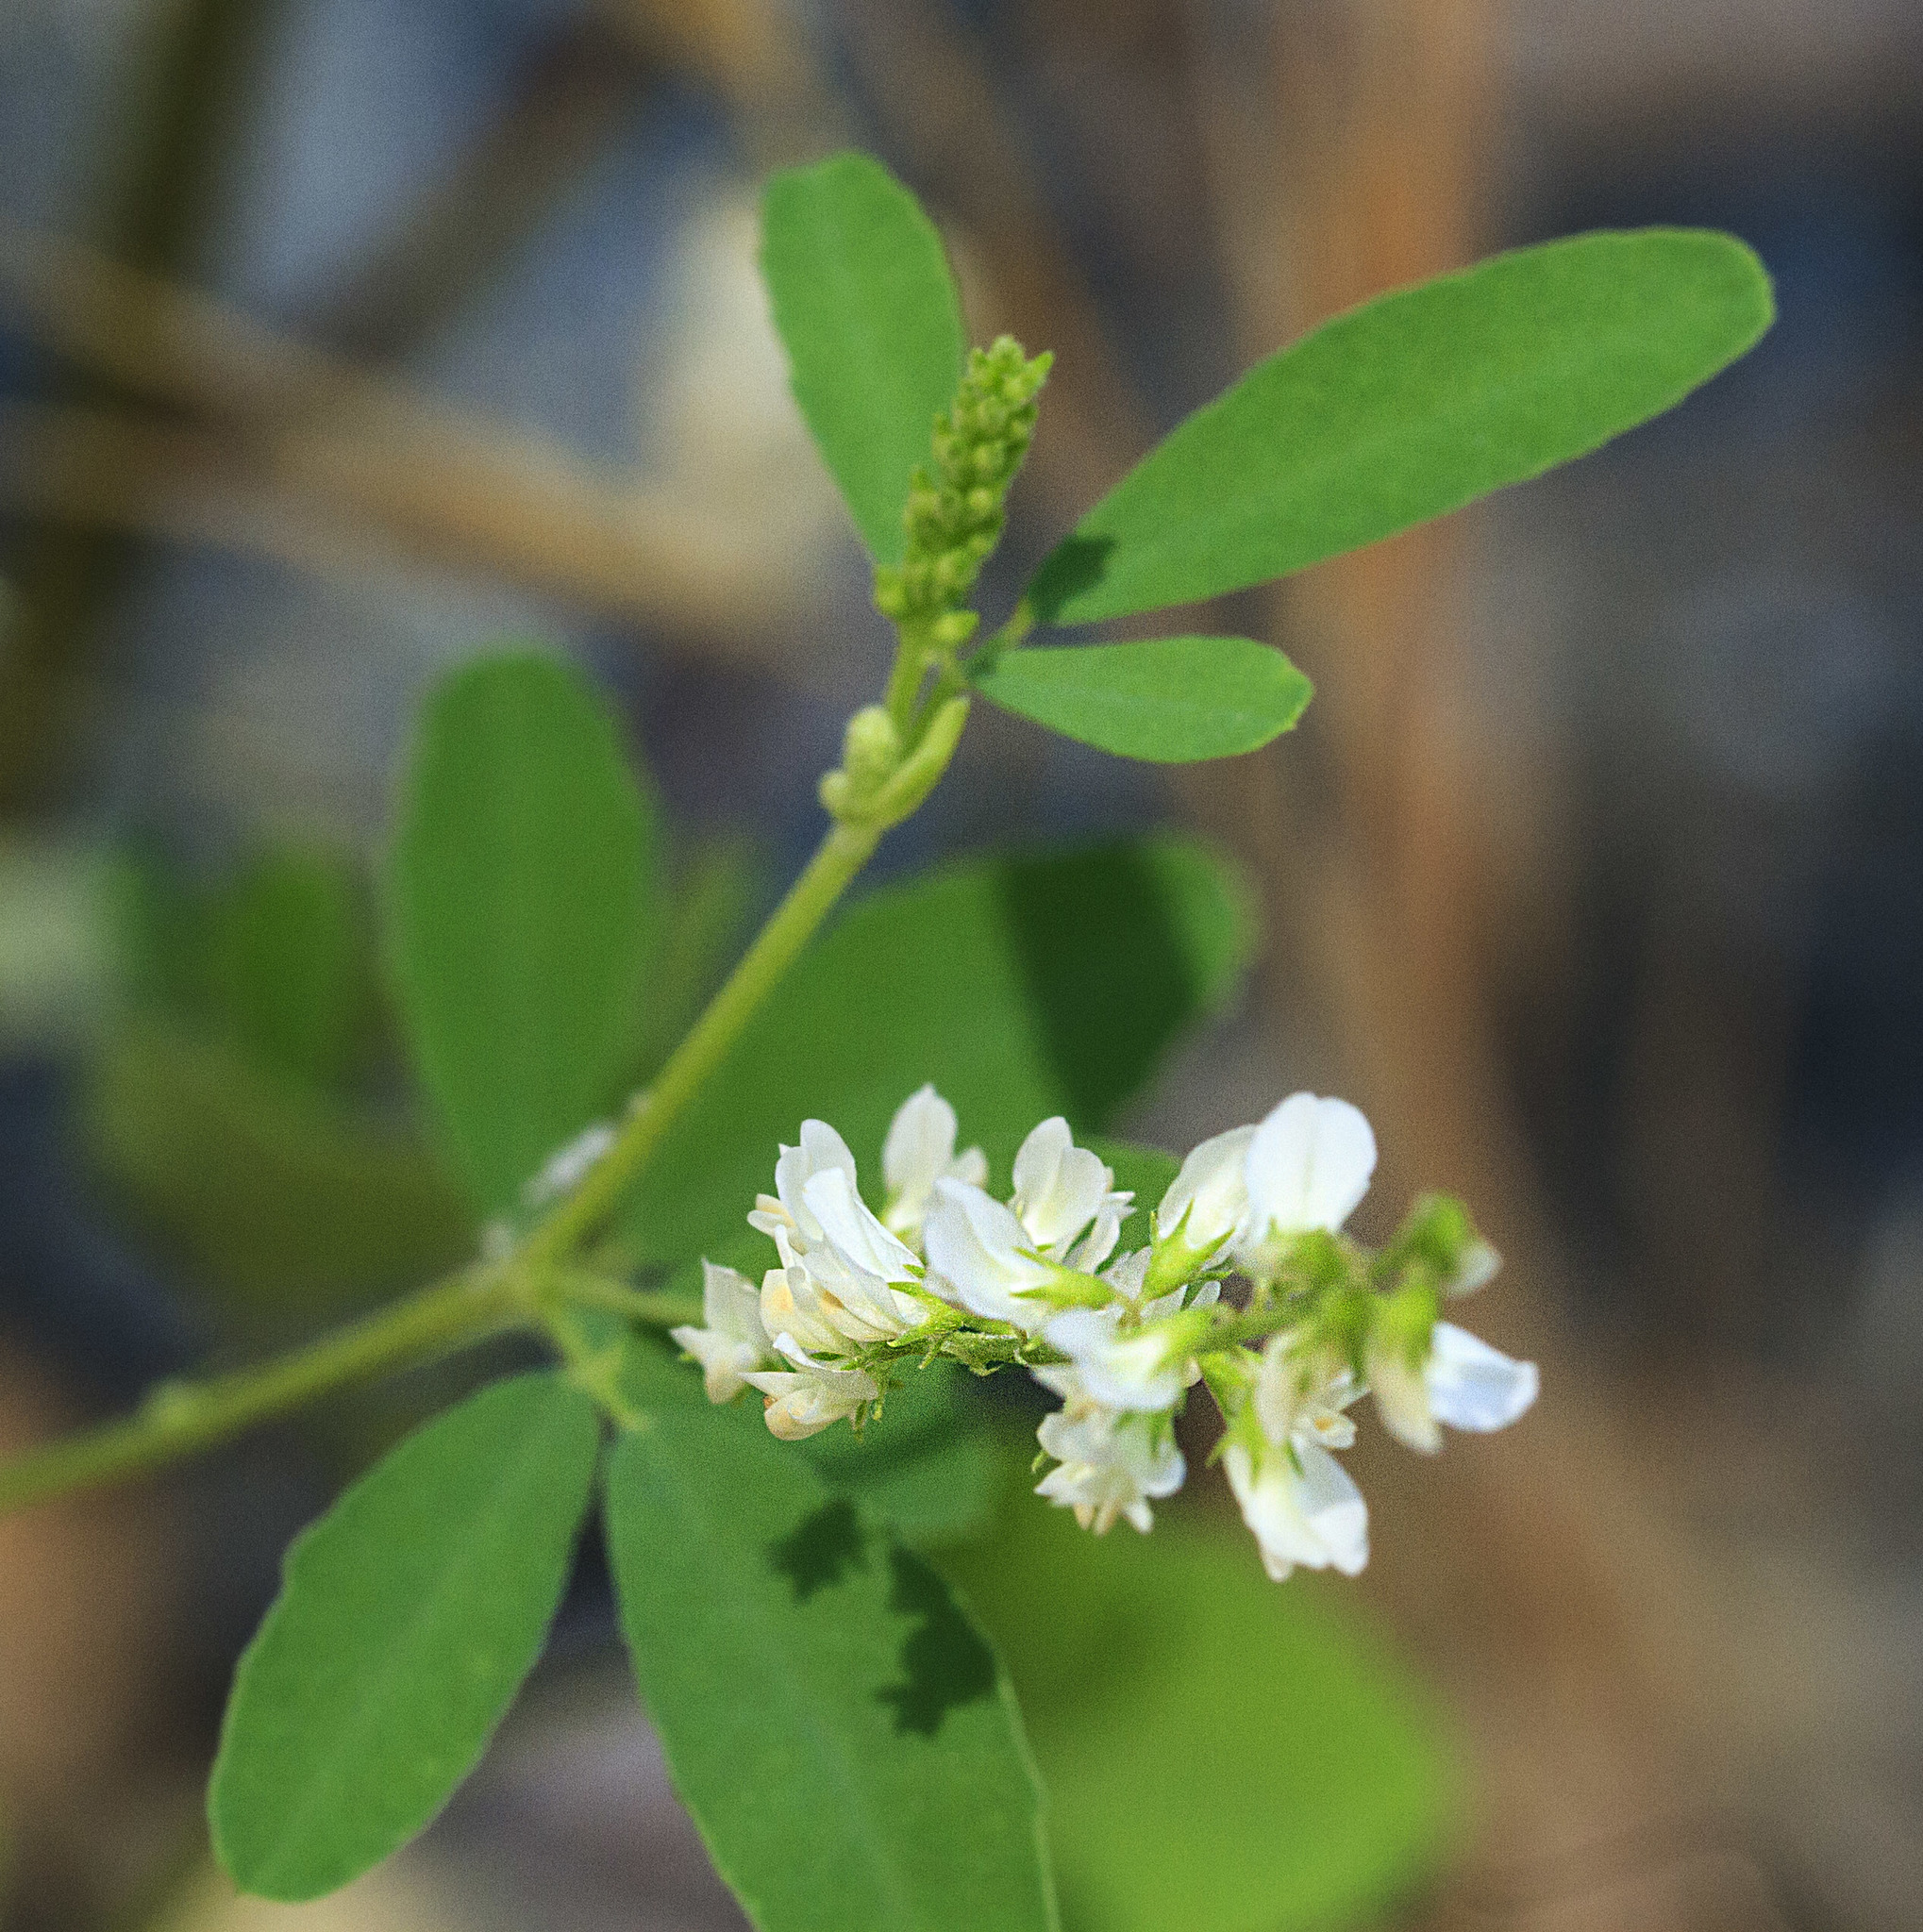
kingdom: Plantae
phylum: Tracheophyta
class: Magnoliopsida
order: Fabales
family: Fabaceae
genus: Melilotus
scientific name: Melilotus albus
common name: White melilot
